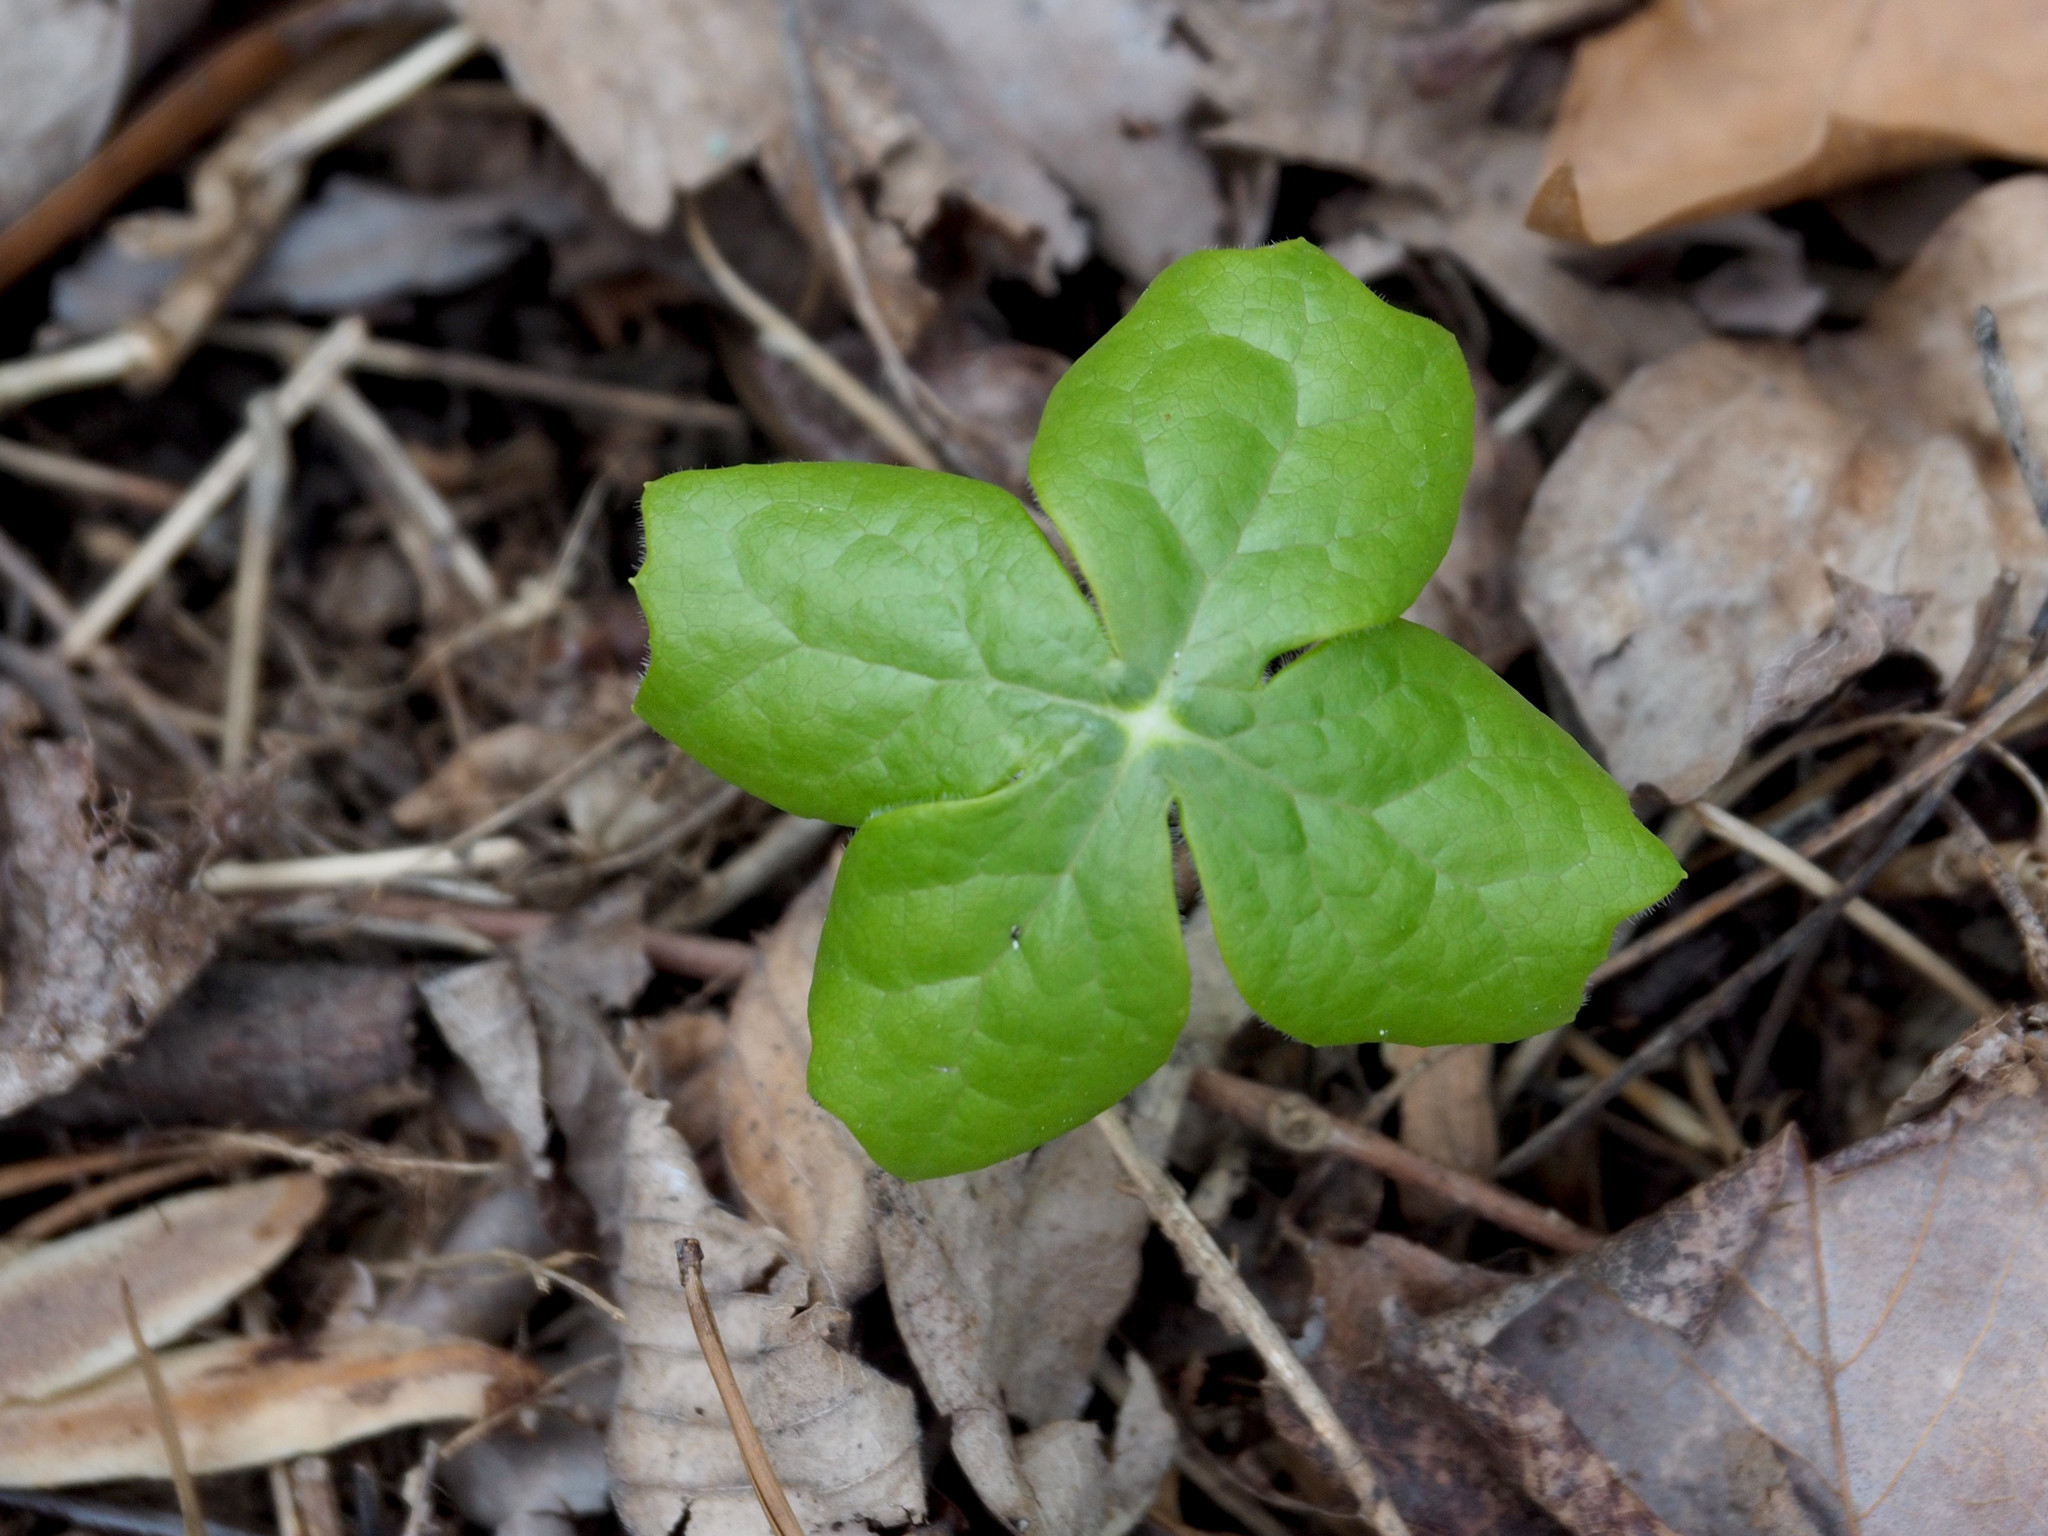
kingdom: Plantae
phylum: Tracheophyta
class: Magnoliopsida
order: Ranunculales
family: Berberidaceae
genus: Podophyllum
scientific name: Podophyllum peltatum
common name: Wild mandrake
